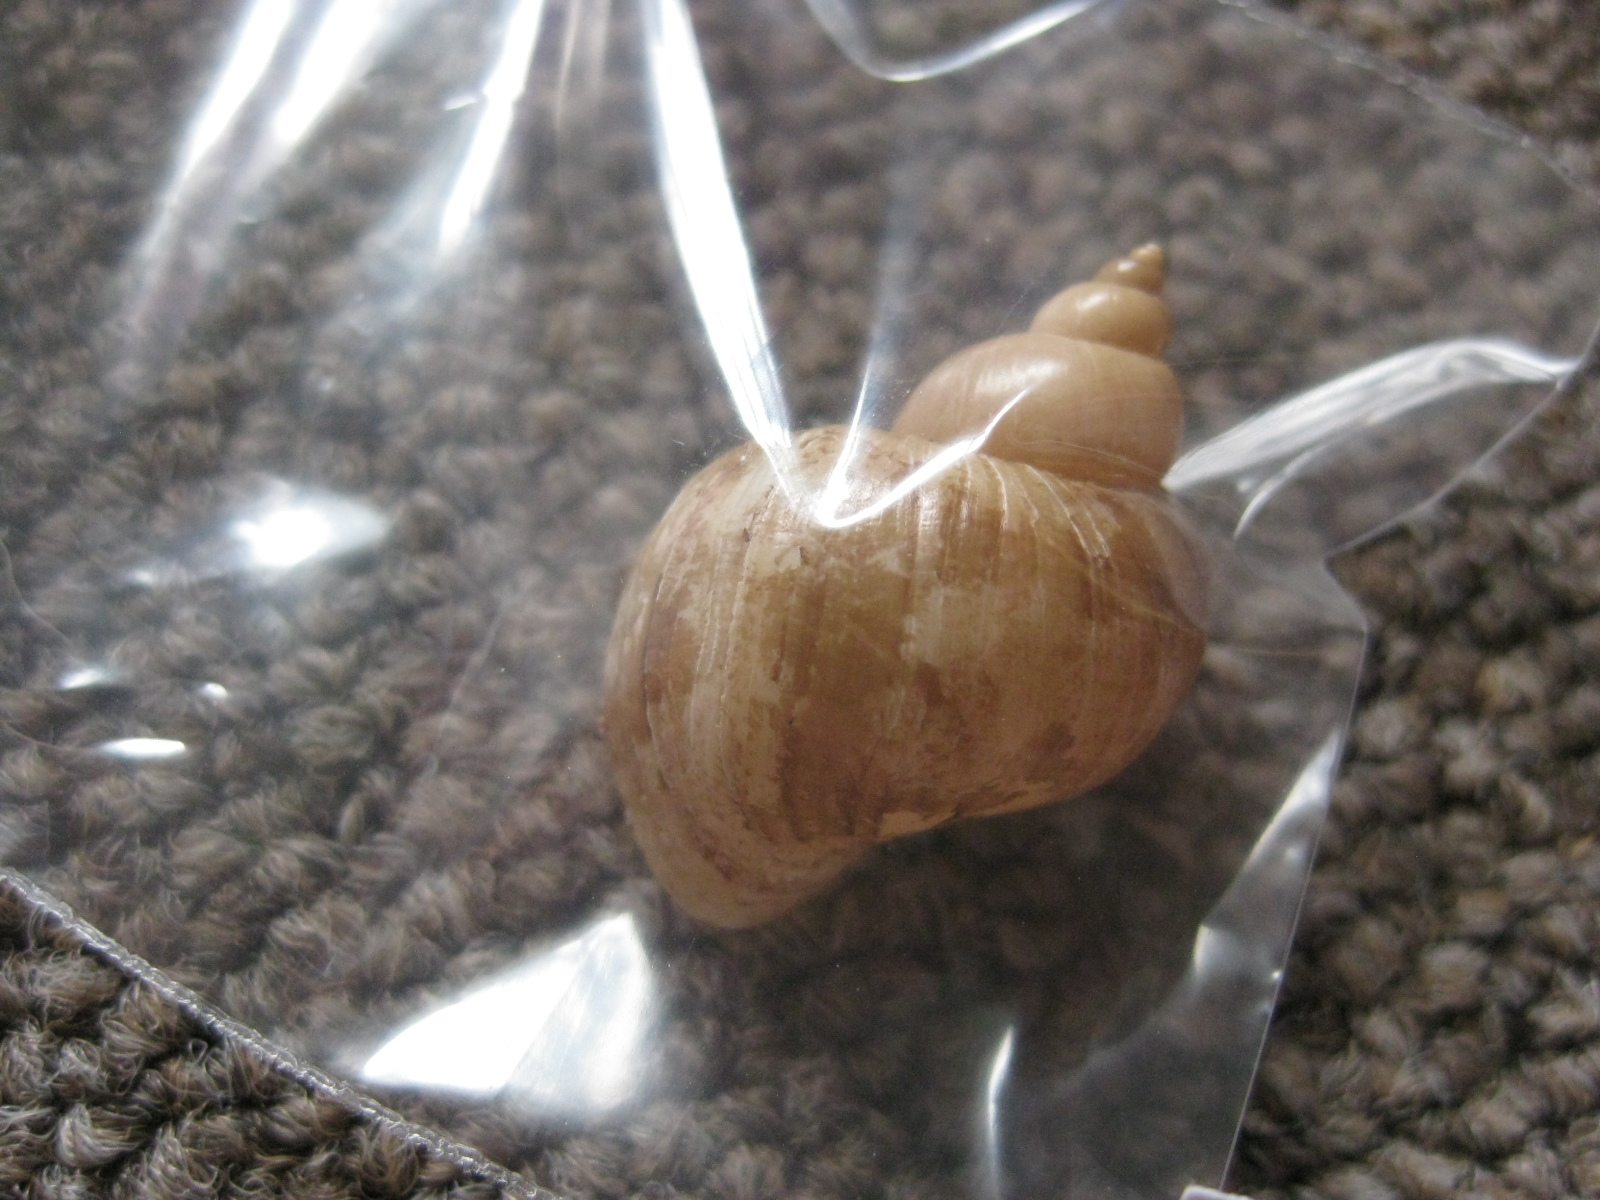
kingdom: Animalia
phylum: Mollusca
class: Gastropoda
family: Epitoniidae
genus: Recluzia
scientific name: Recluzia lutea
